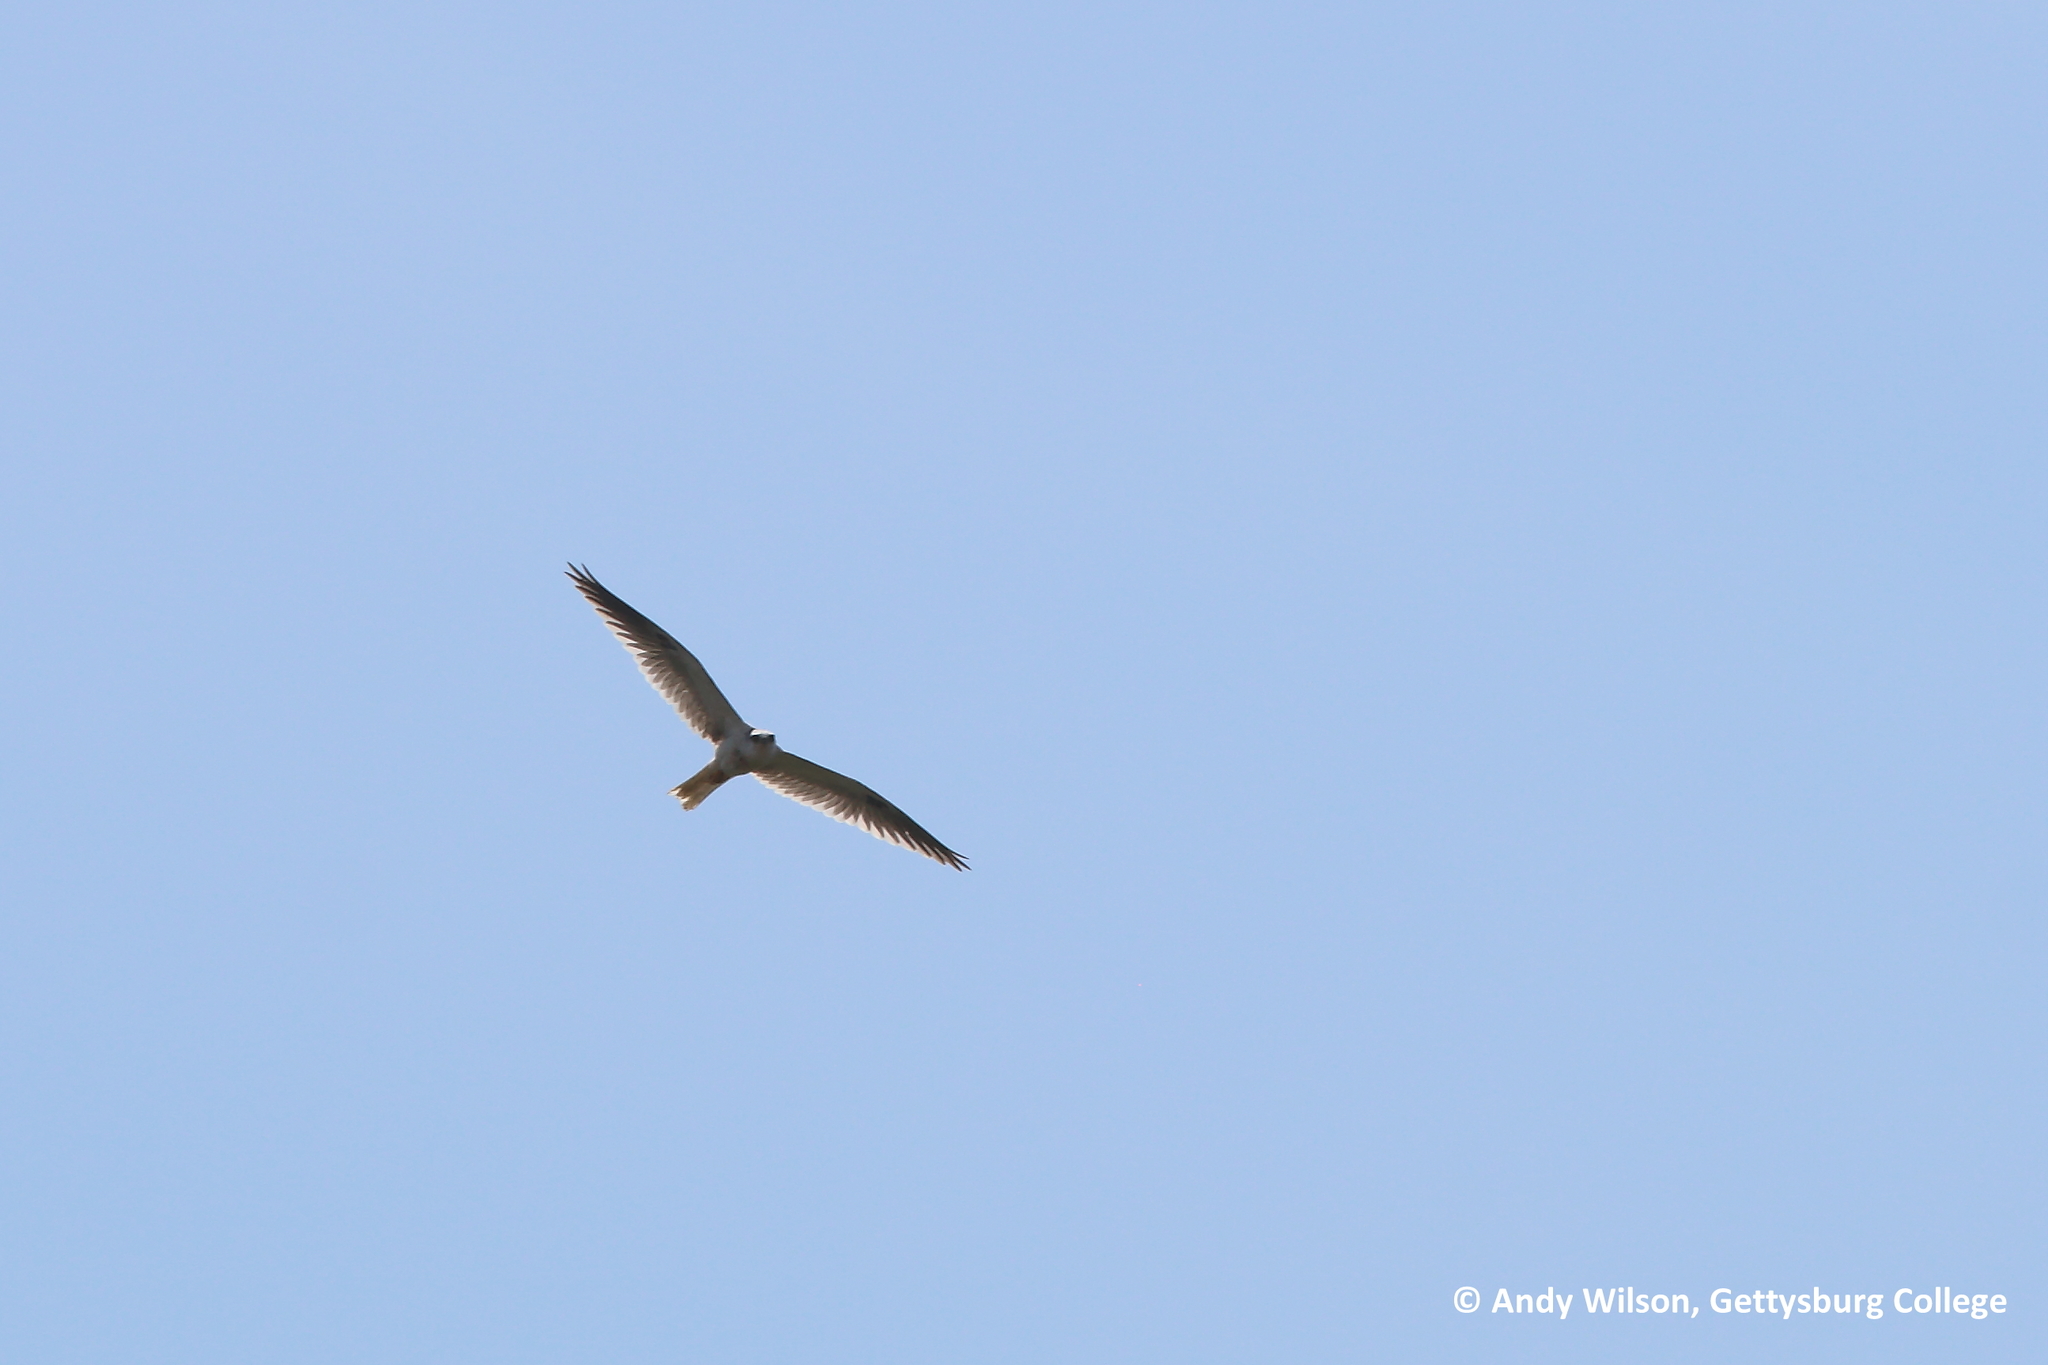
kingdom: Animalia
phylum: Chordata
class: Aves
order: Accipitriformes
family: Accipitridae
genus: Elanus
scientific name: Elanus leucurus
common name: White-tailed kite
